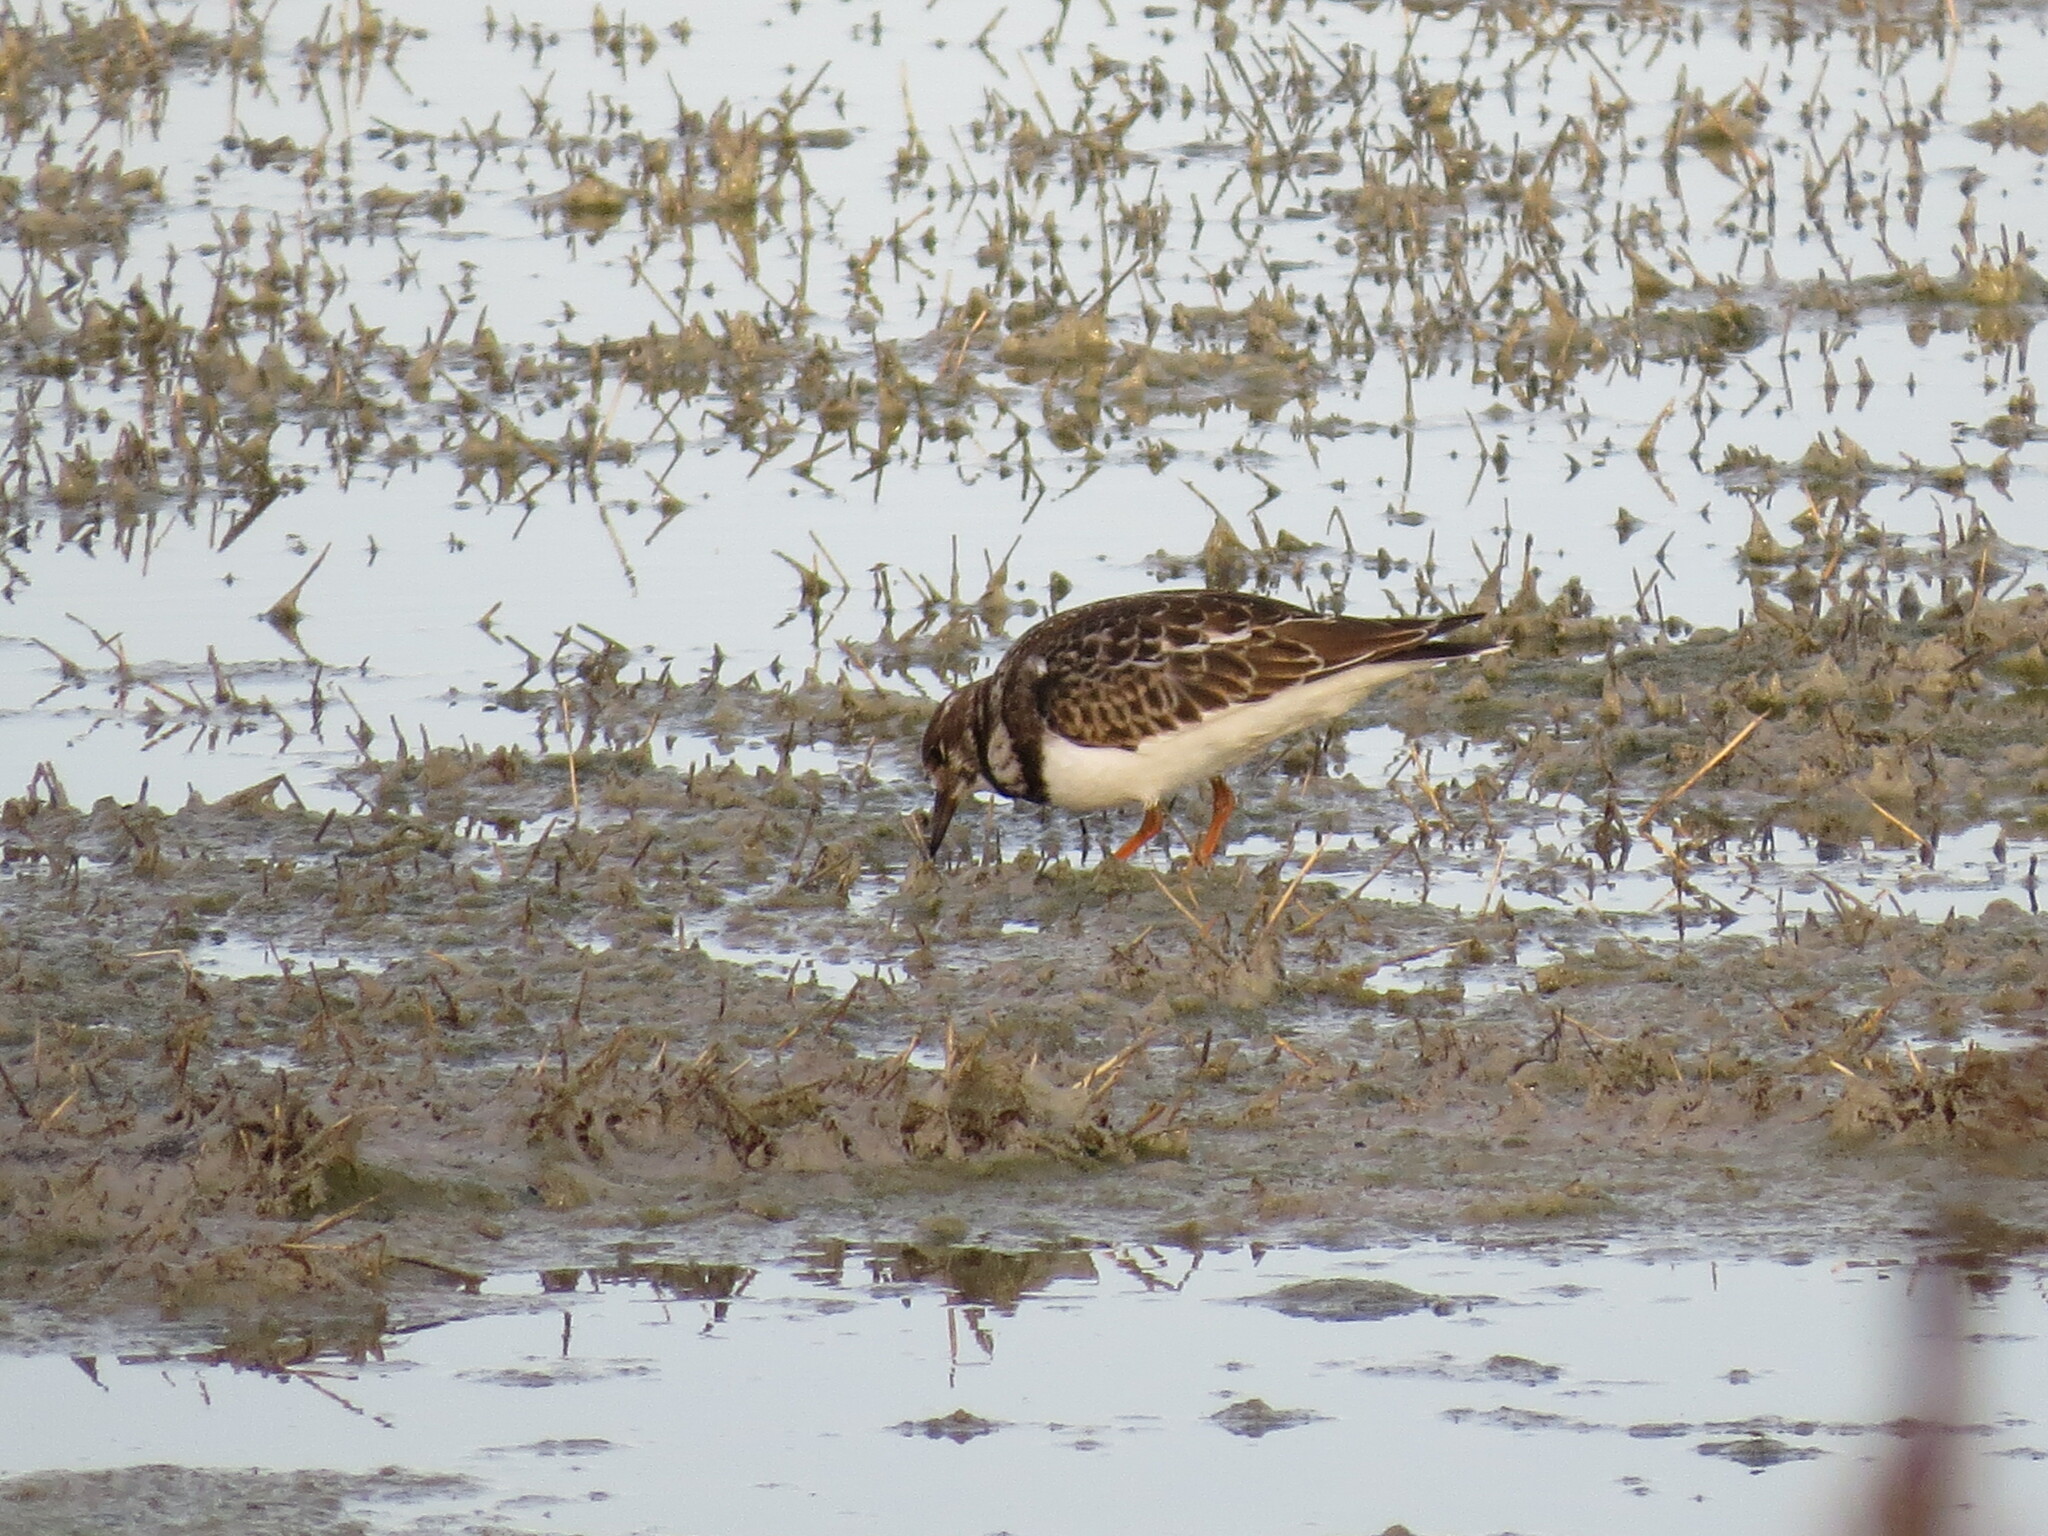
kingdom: Animalia
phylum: Chordata
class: Aves
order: Charadriiformes
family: Scolopacidae
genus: Arenaria
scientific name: Arenaria interpres
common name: Ruddy turnstone
